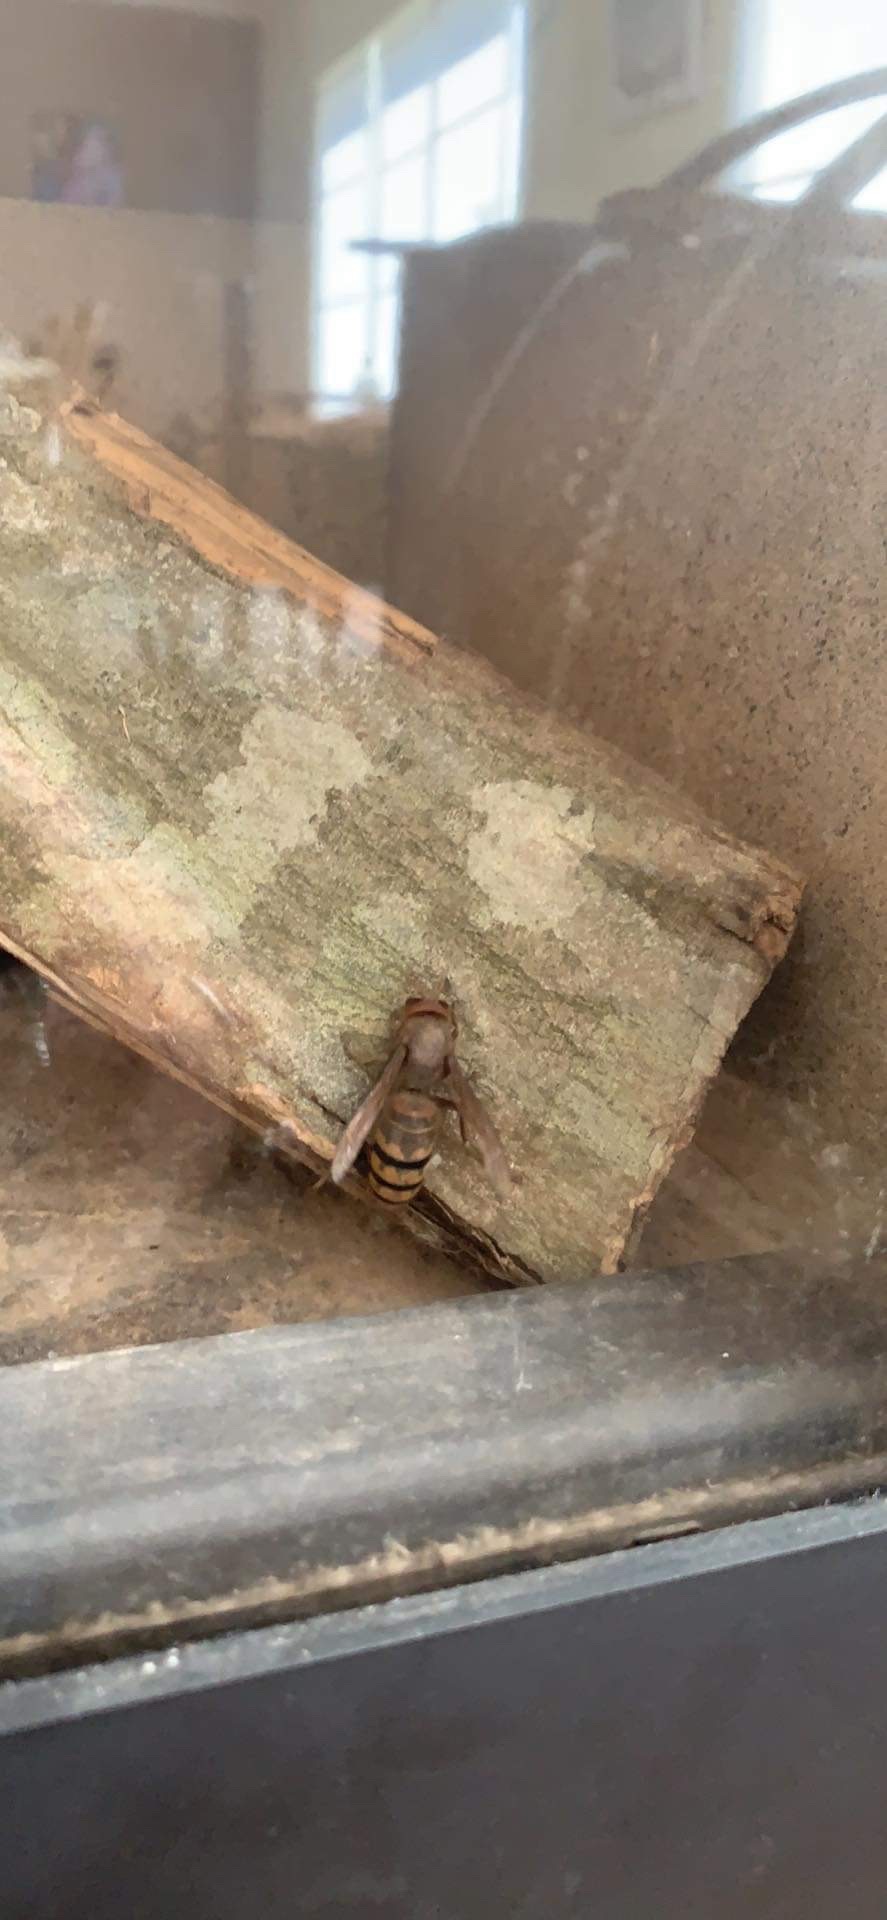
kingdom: Animalia
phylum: Arthropoda
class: Insecta
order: Hymenoptera
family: Vespidae
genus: Vespa
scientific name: Vespa crabro
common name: Hornet
